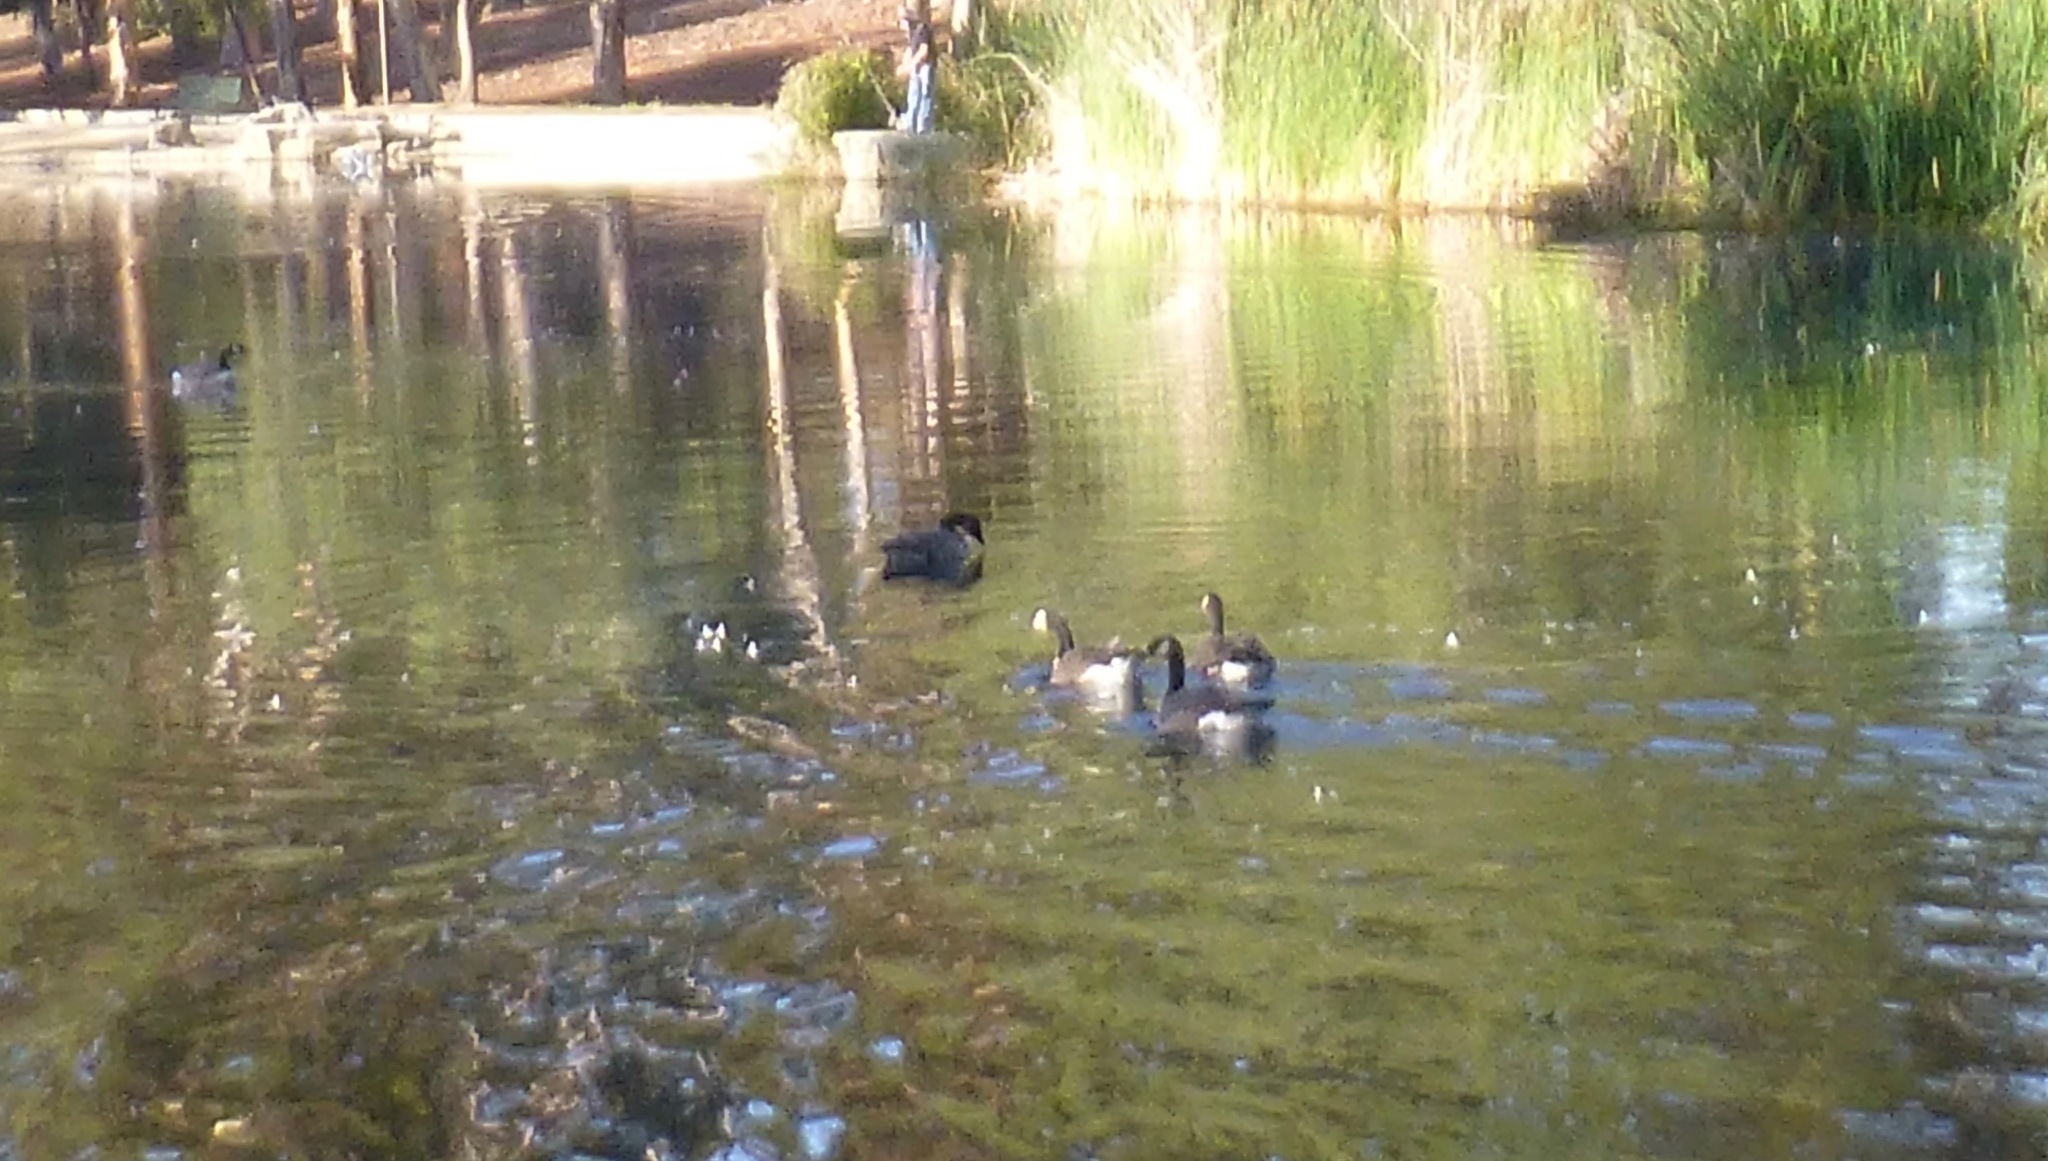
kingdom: Animalia
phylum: Chordata
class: Aves
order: Anseriformes
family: Anatidae
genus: Branta
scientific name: Branta canadensis
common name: Canada goose
